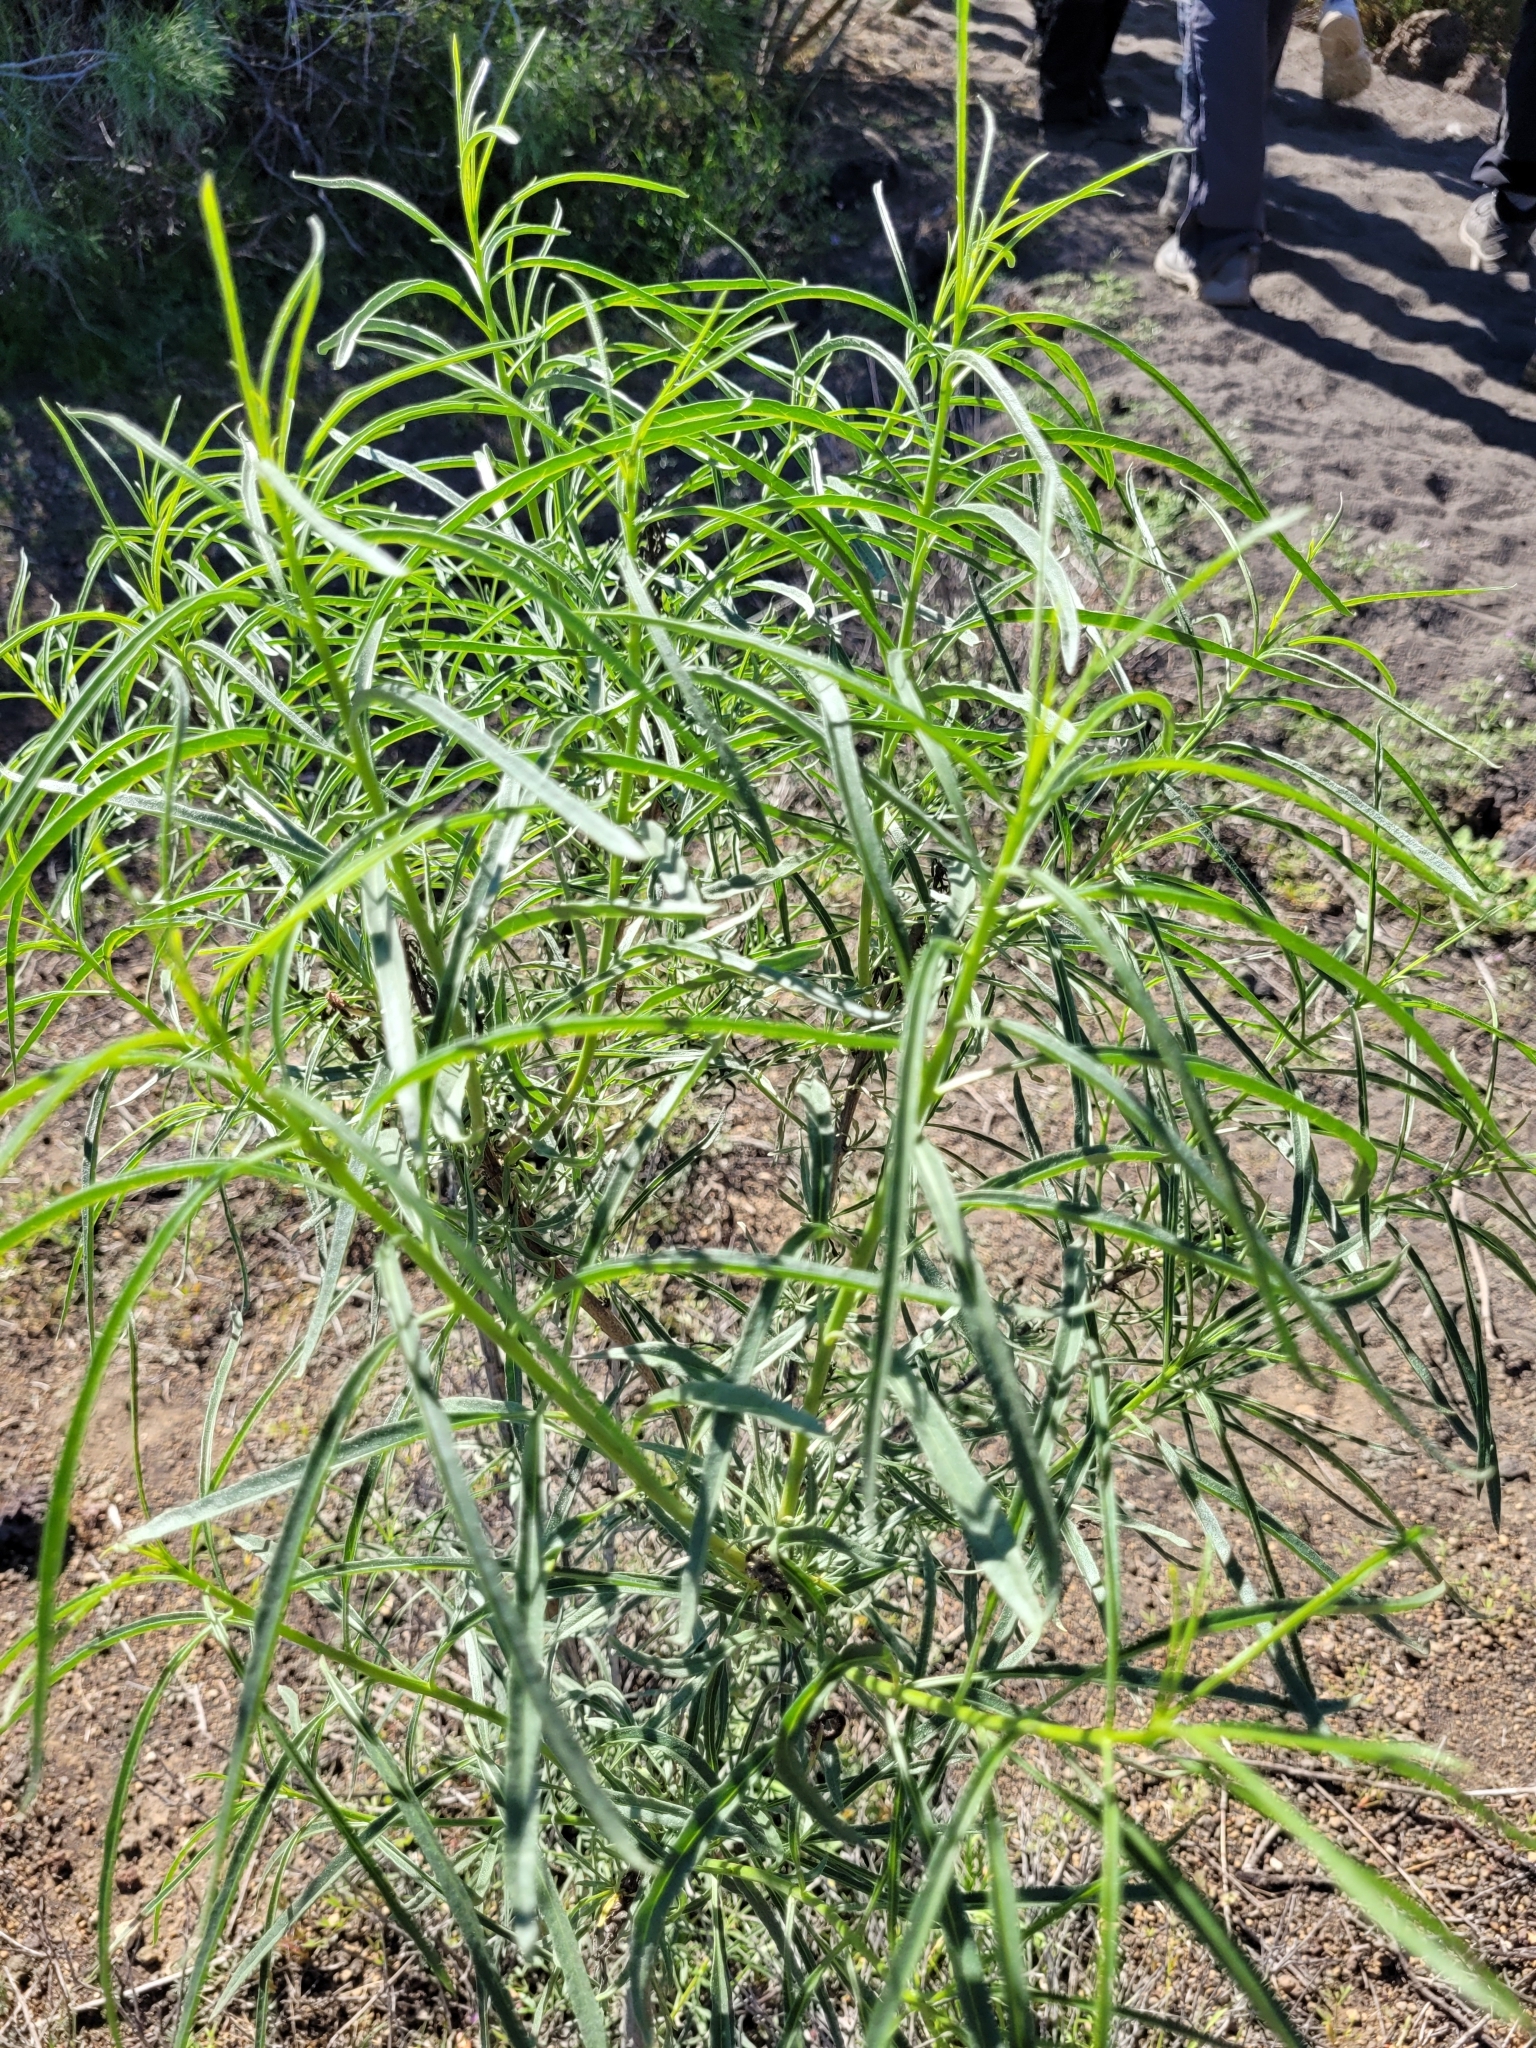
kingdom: Plantae
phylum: Tracheophyta
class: Magnoliopsida
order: Boraginales
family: Heliotropiaceae
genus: Heliotropium
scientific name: Heliotropium messerschmidioides
